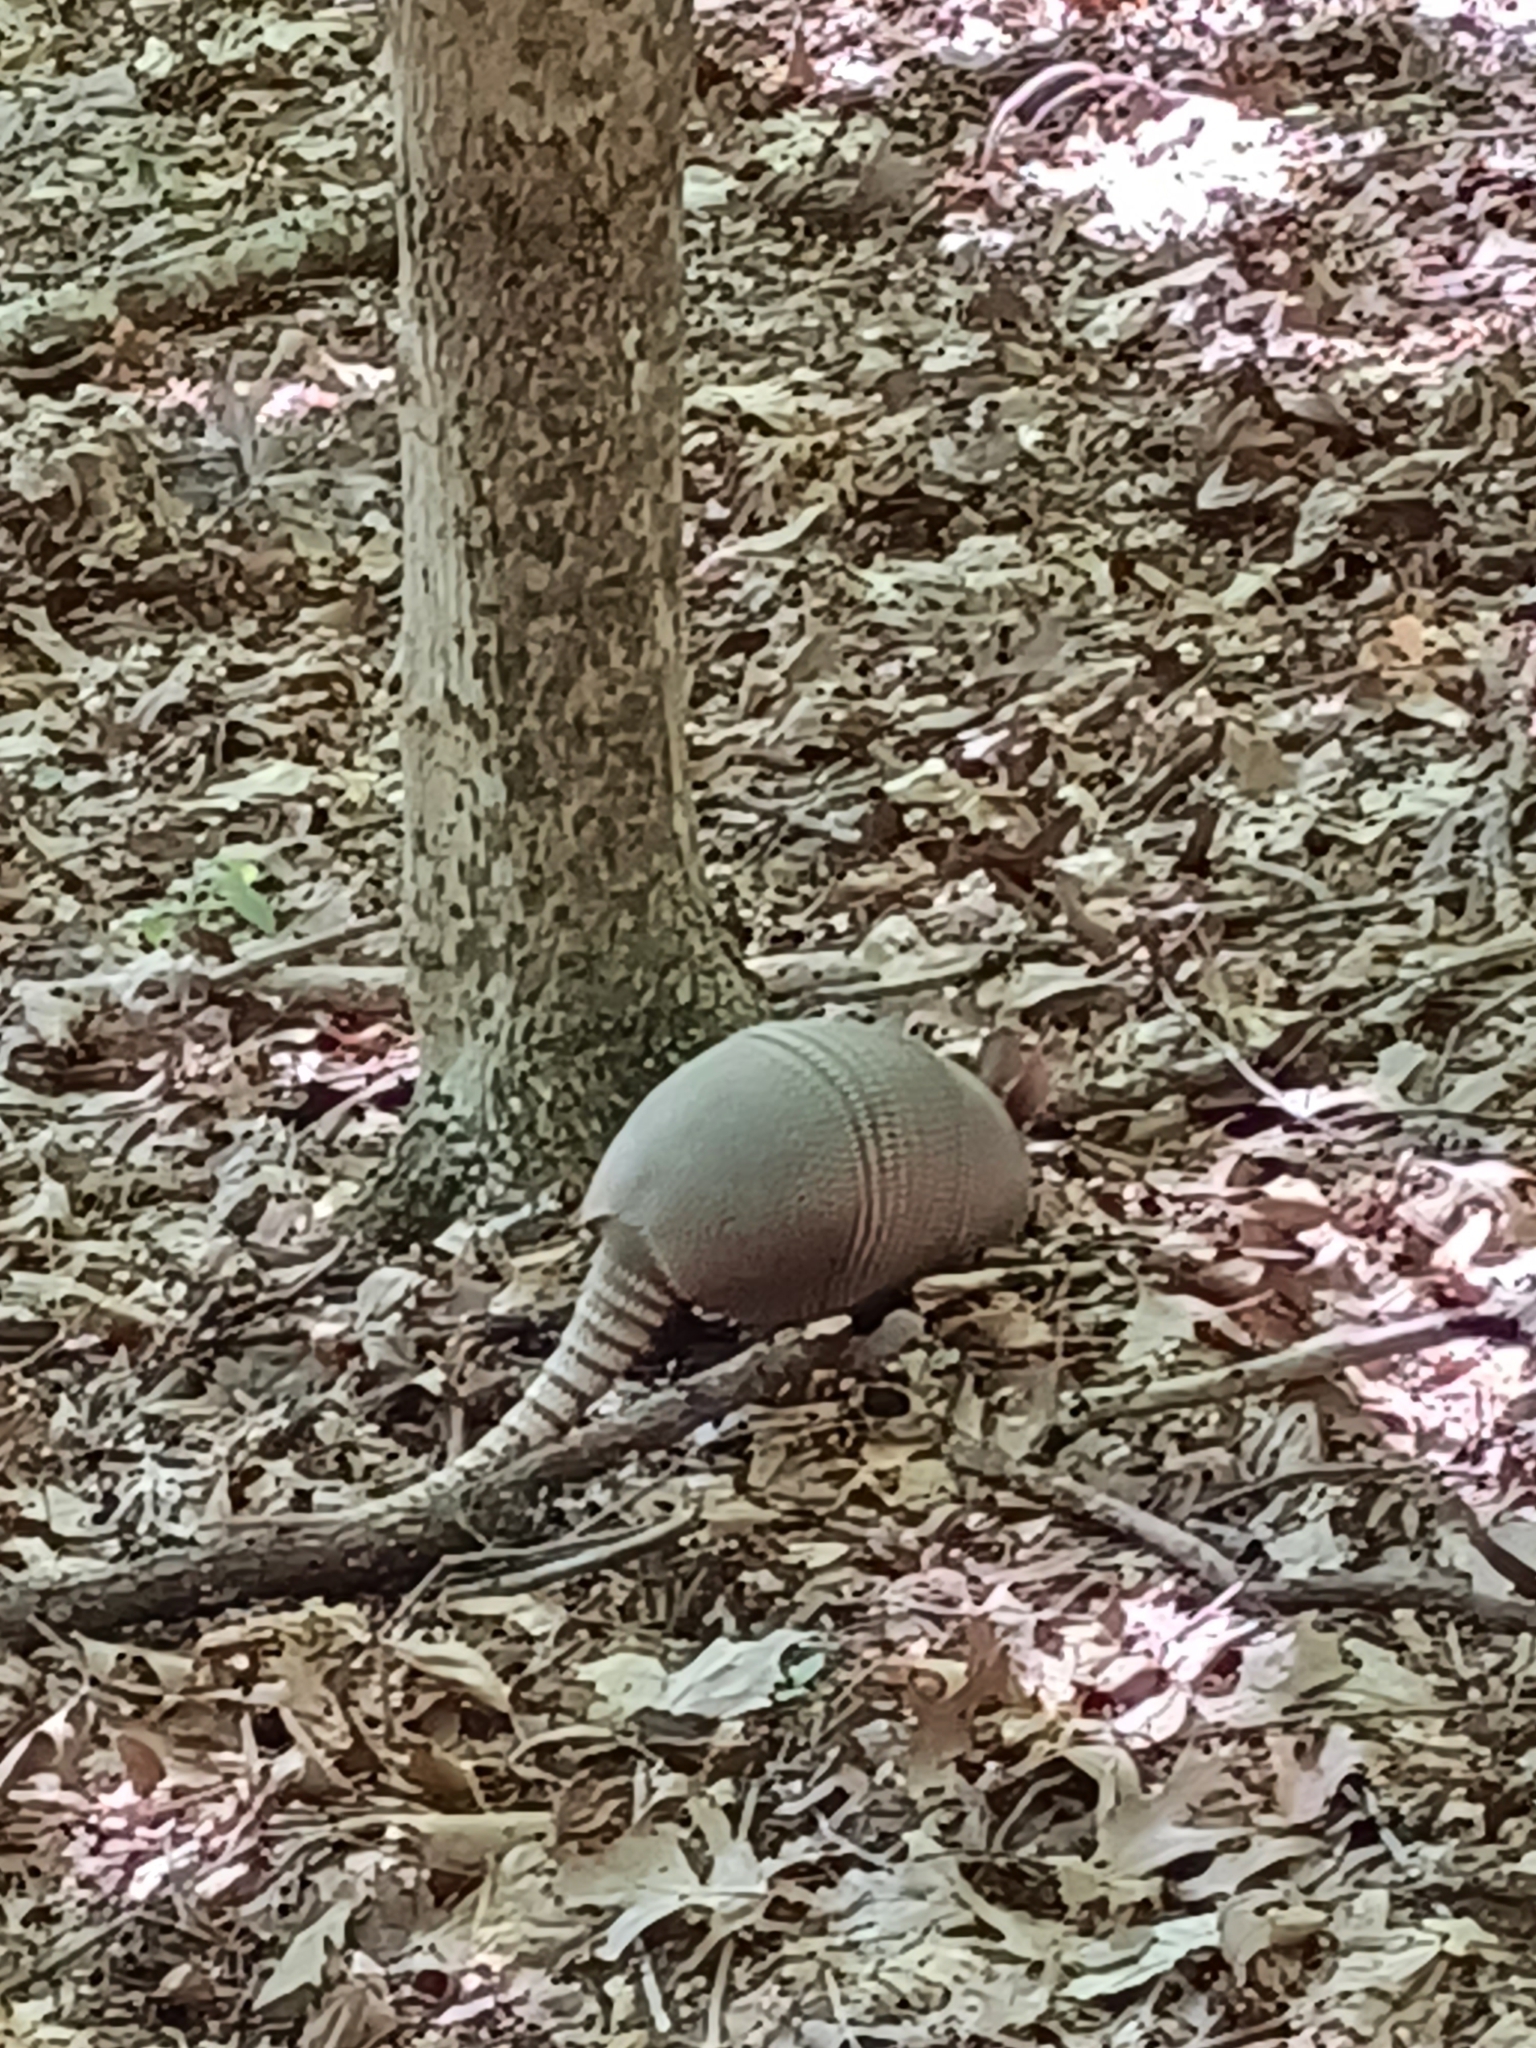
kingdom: Animalia
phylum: Chordata
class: Mammalia
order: Cingulata
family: Dasypodidae
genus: Dasypus
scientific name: Dasypus novemcinctus
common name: Nine-banded armadillo
